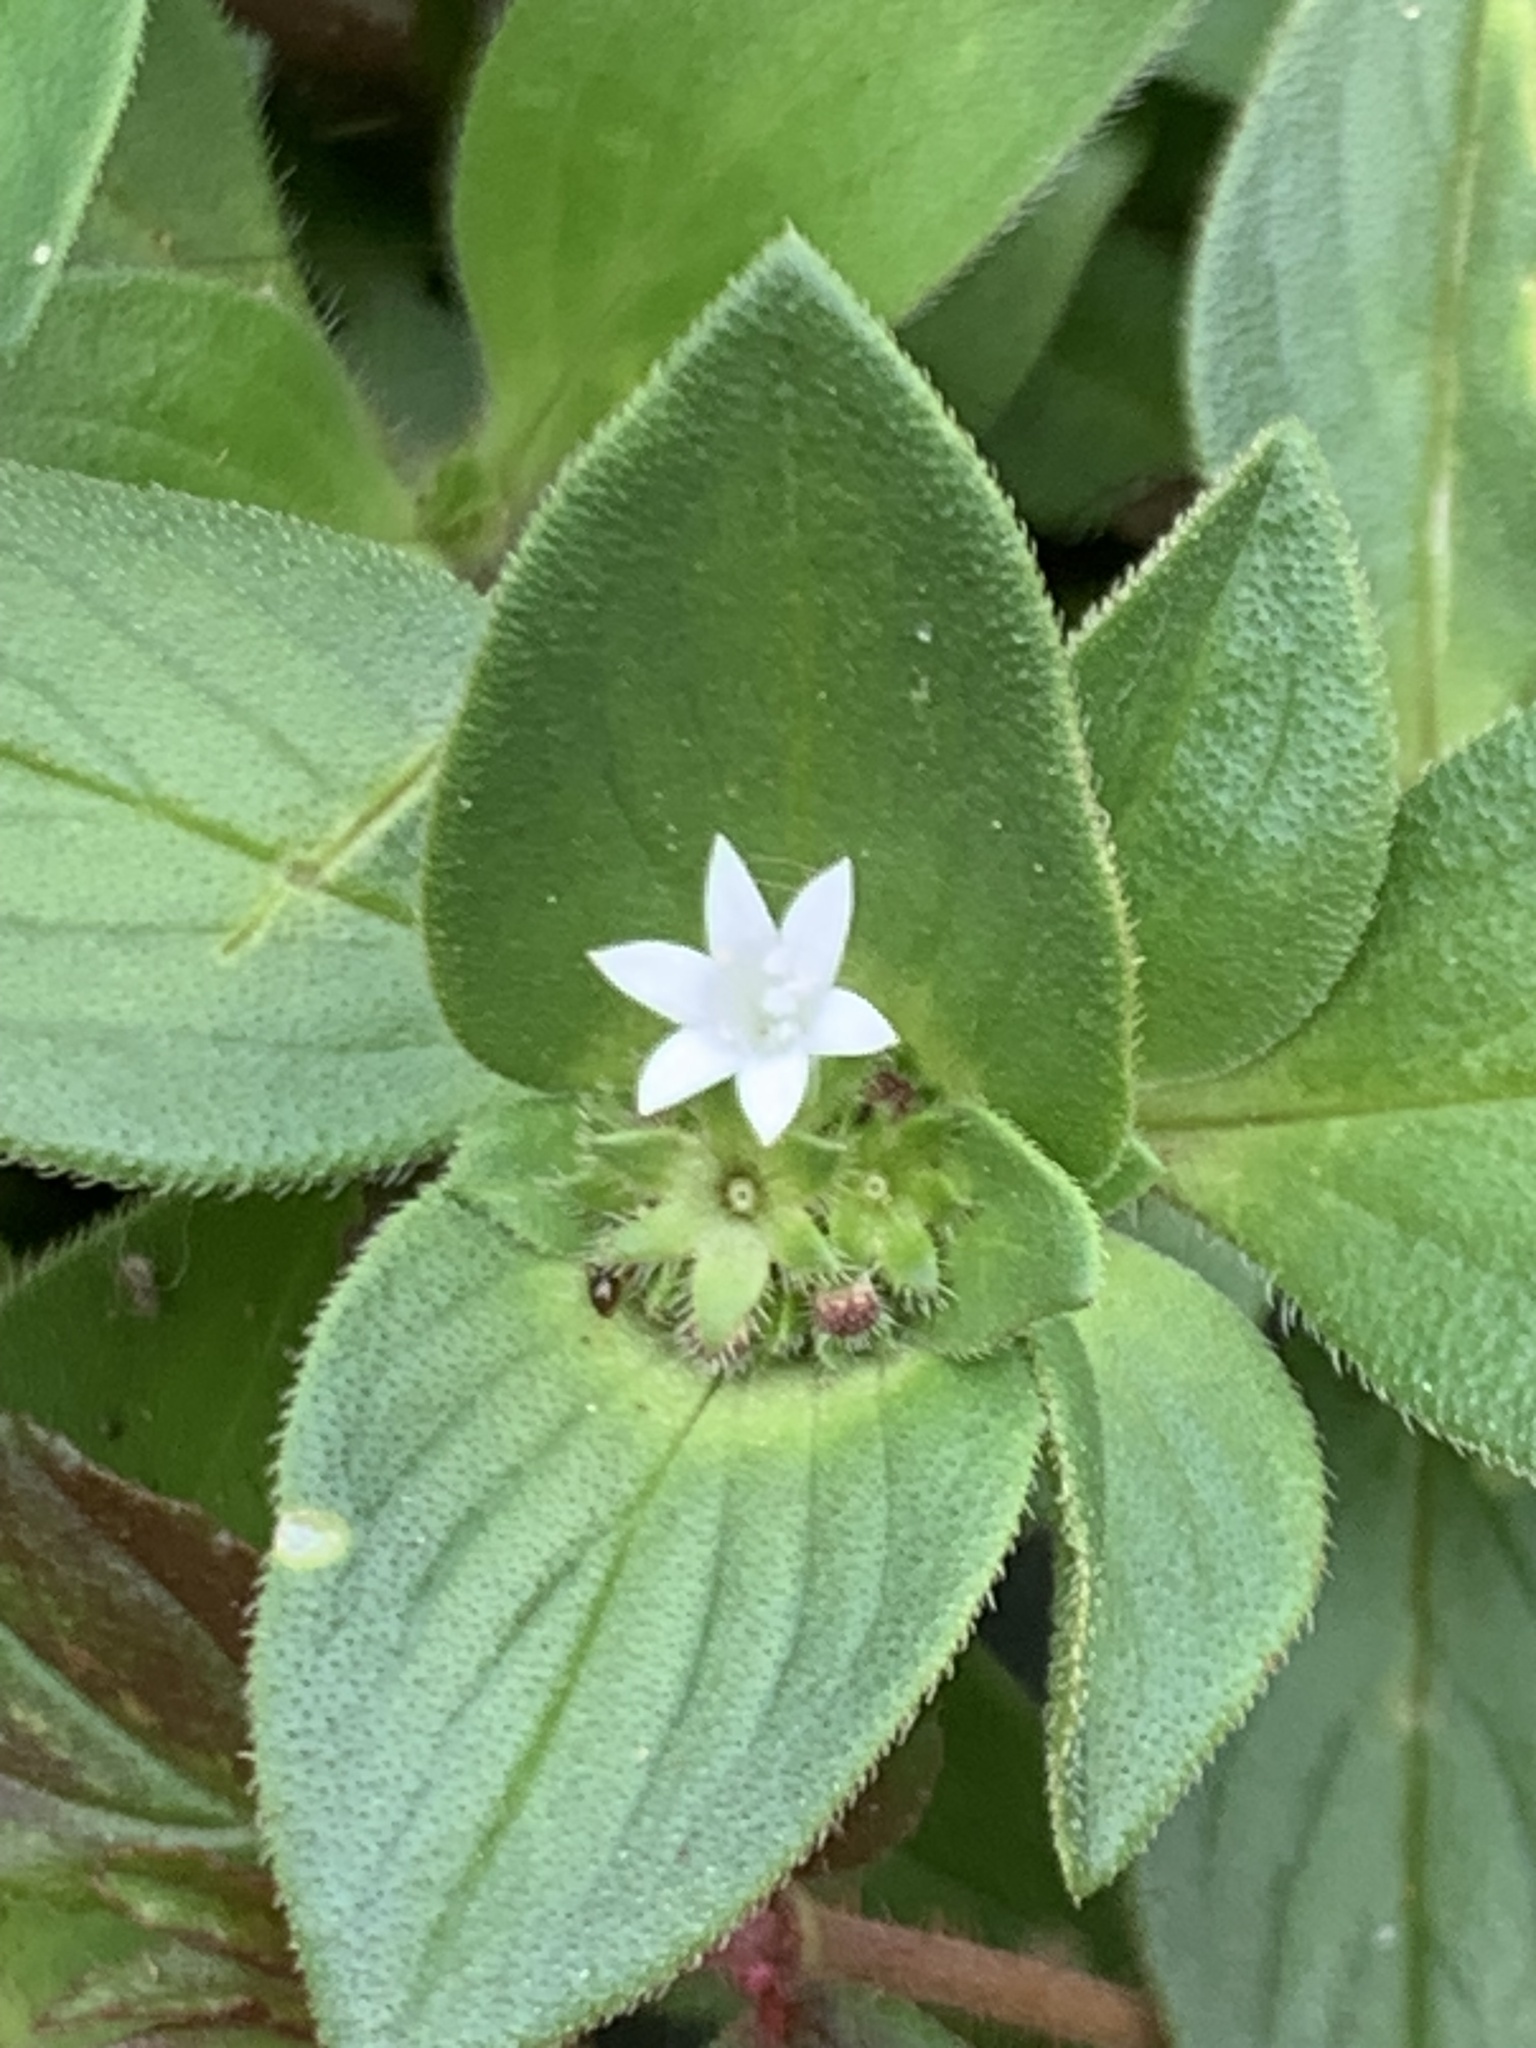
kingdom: Plantae
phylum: Tracheophyta
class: Magnoliopsida
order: Gentianales
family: Rubiaceae
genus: Richardia
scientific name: Richardia brasiliensis
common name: Tropical mexican clover
